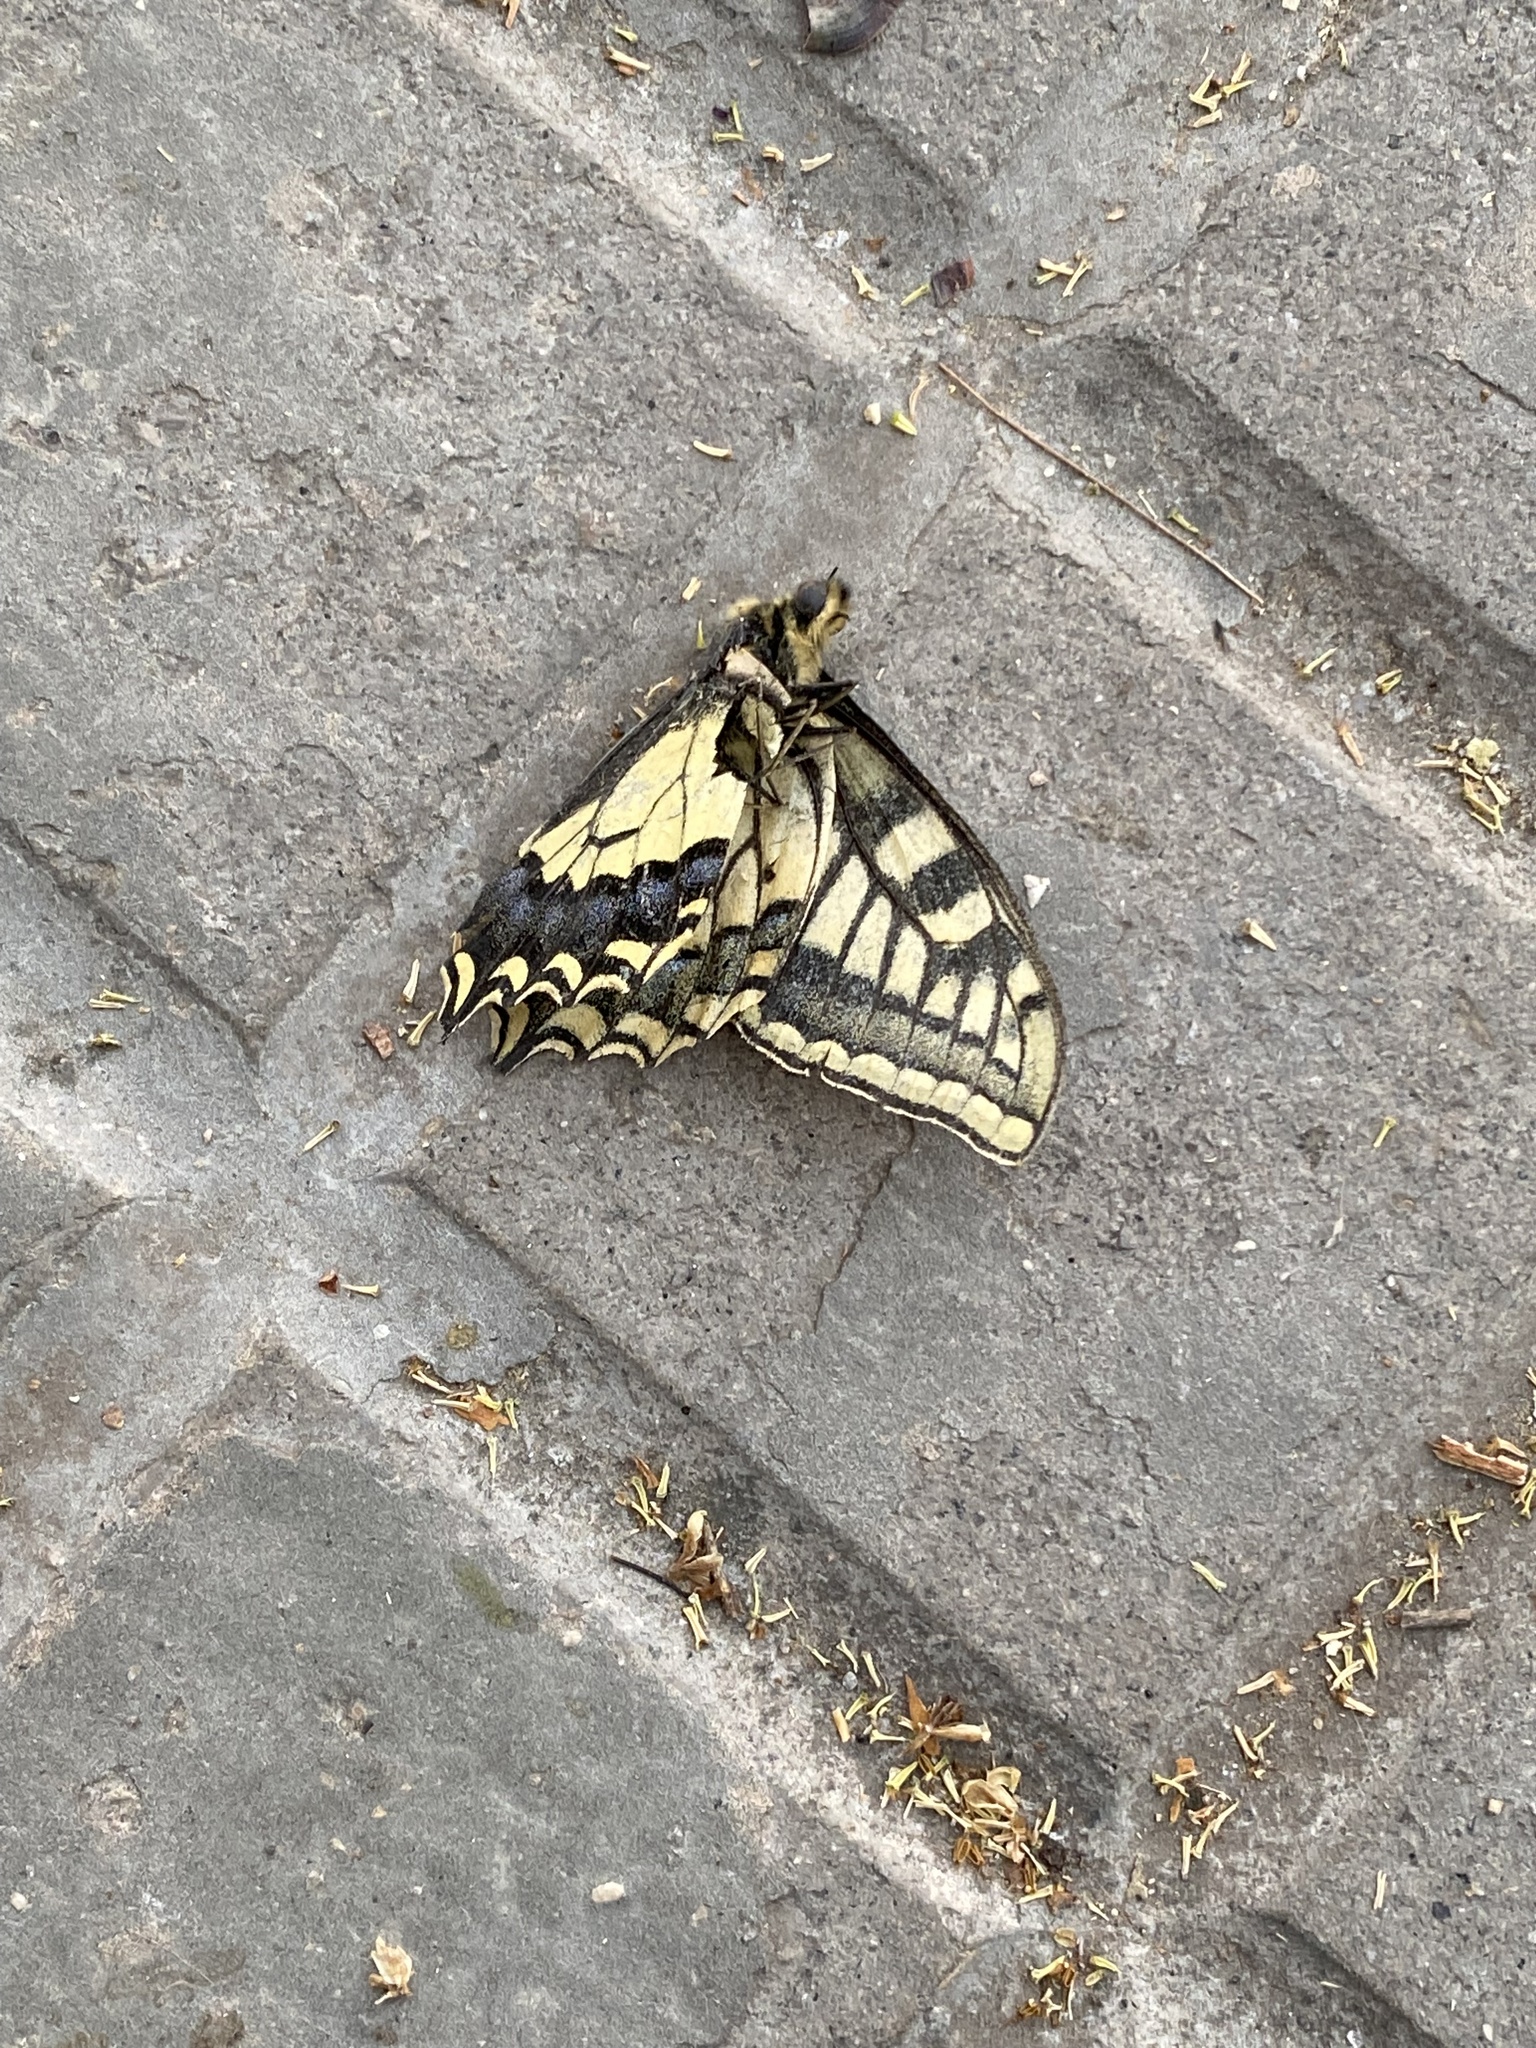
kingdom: Animalia
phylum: Arthropoda
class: Insecta
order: Lepidoptera
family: Papilionidae
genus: Papilio
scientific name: Papilio machaon
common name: Swallowtail
